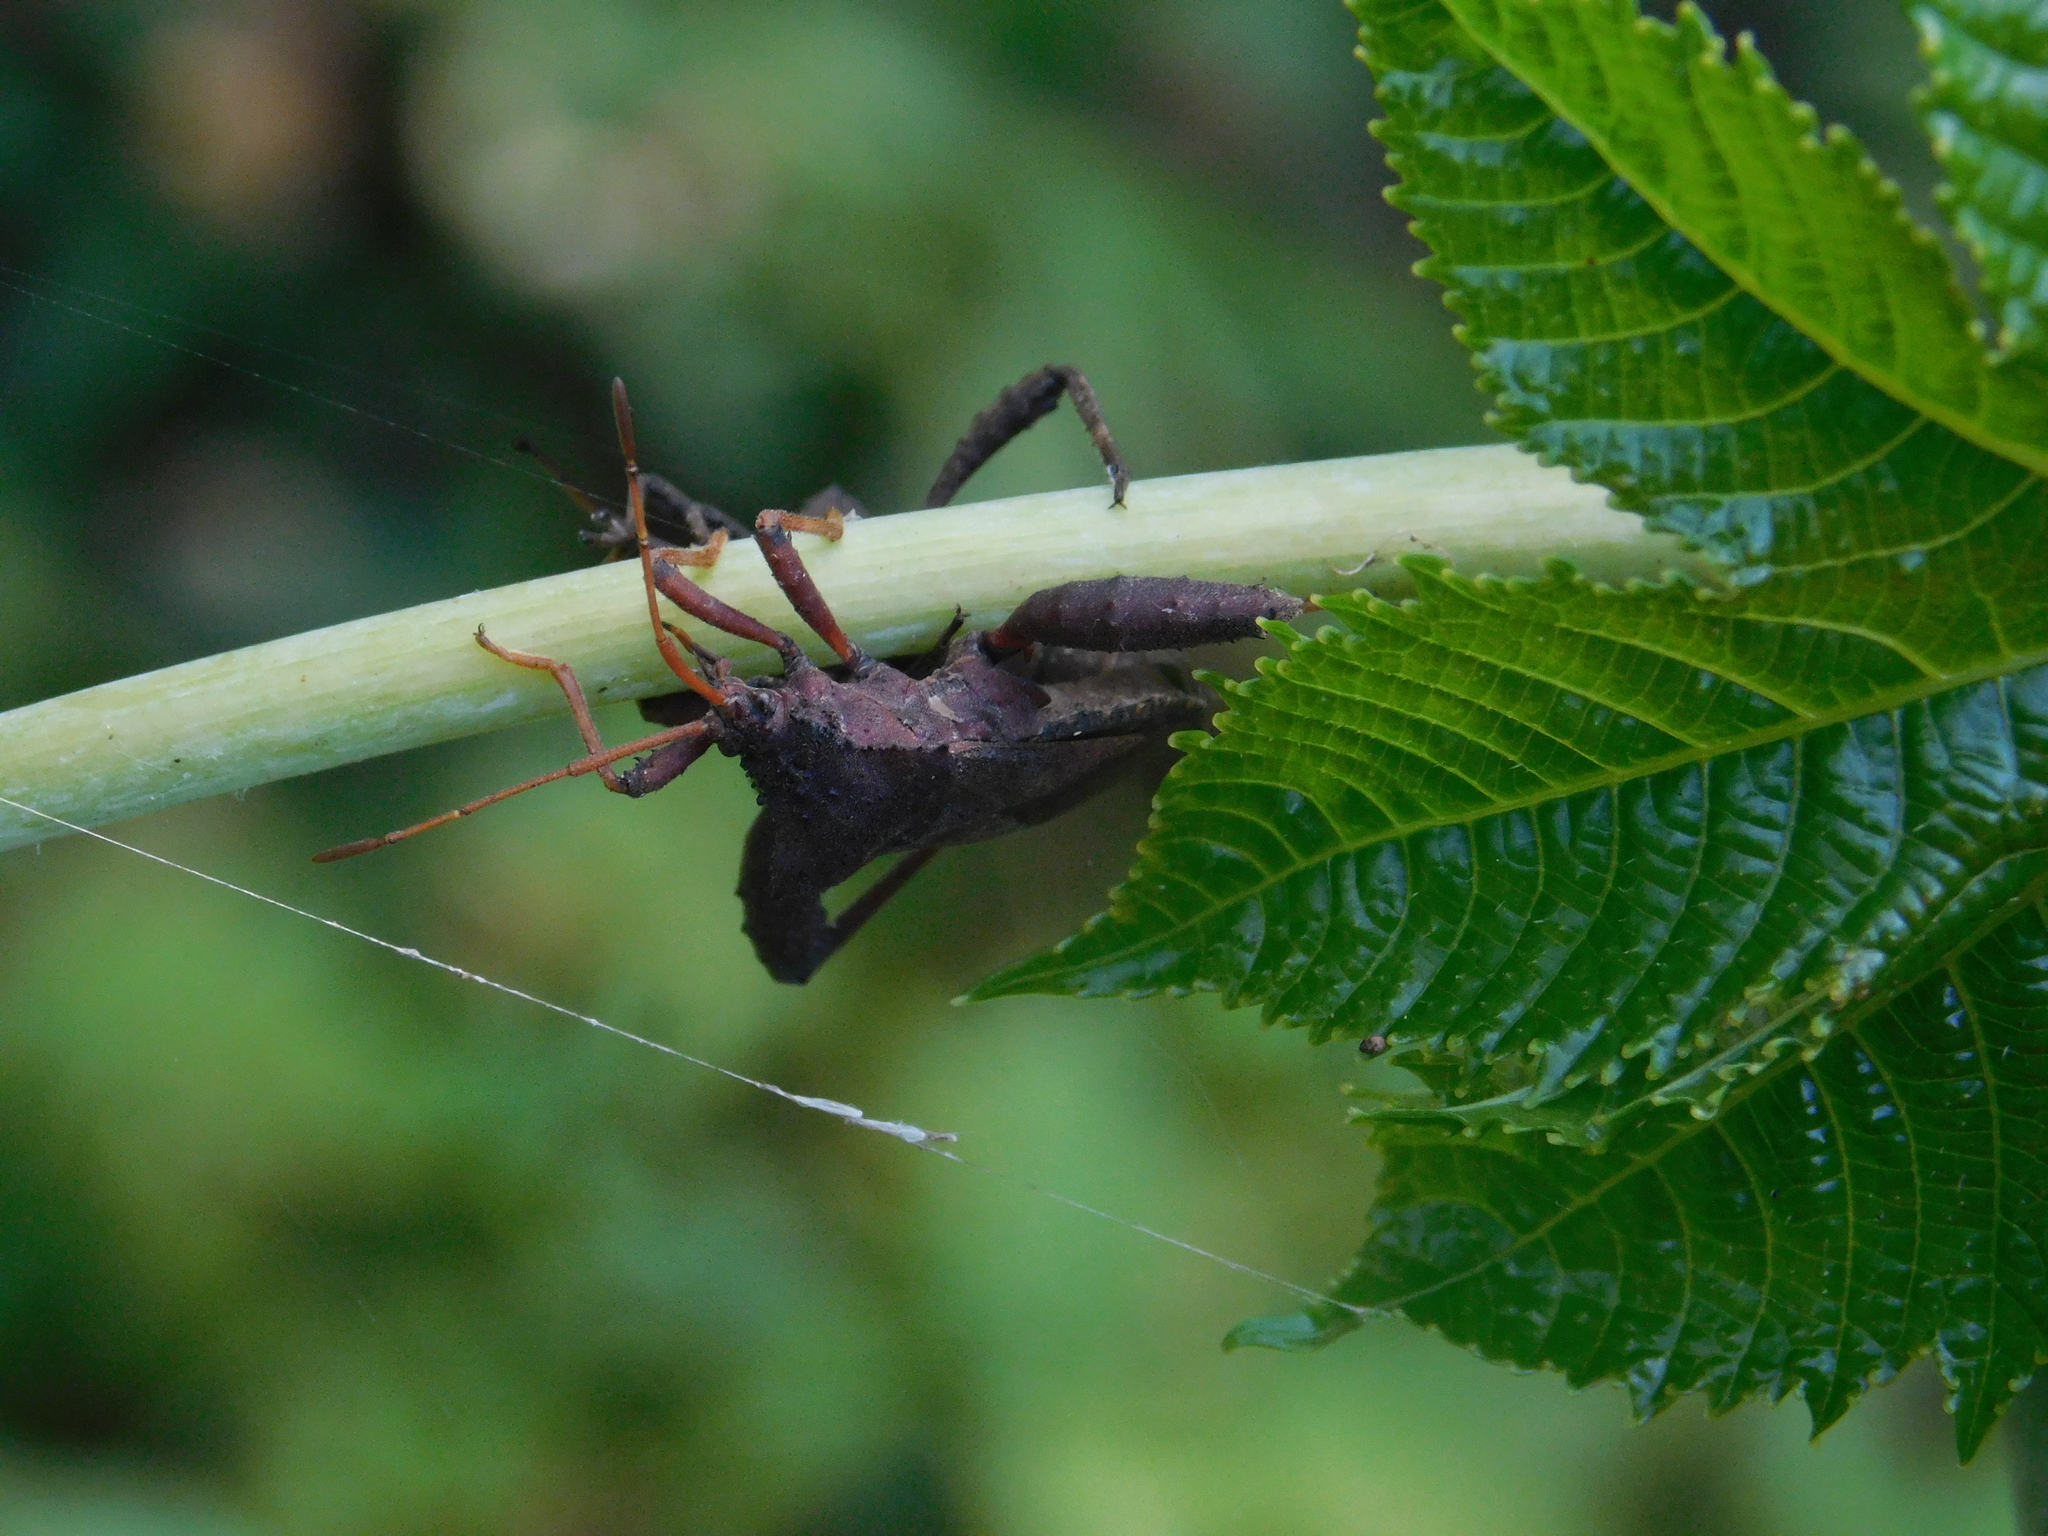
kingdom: Animalia
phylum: Arthropoda
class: Insecta
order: Hemiptera
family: Coreidae
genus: Camptischium
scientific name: Camptischium clavipes
